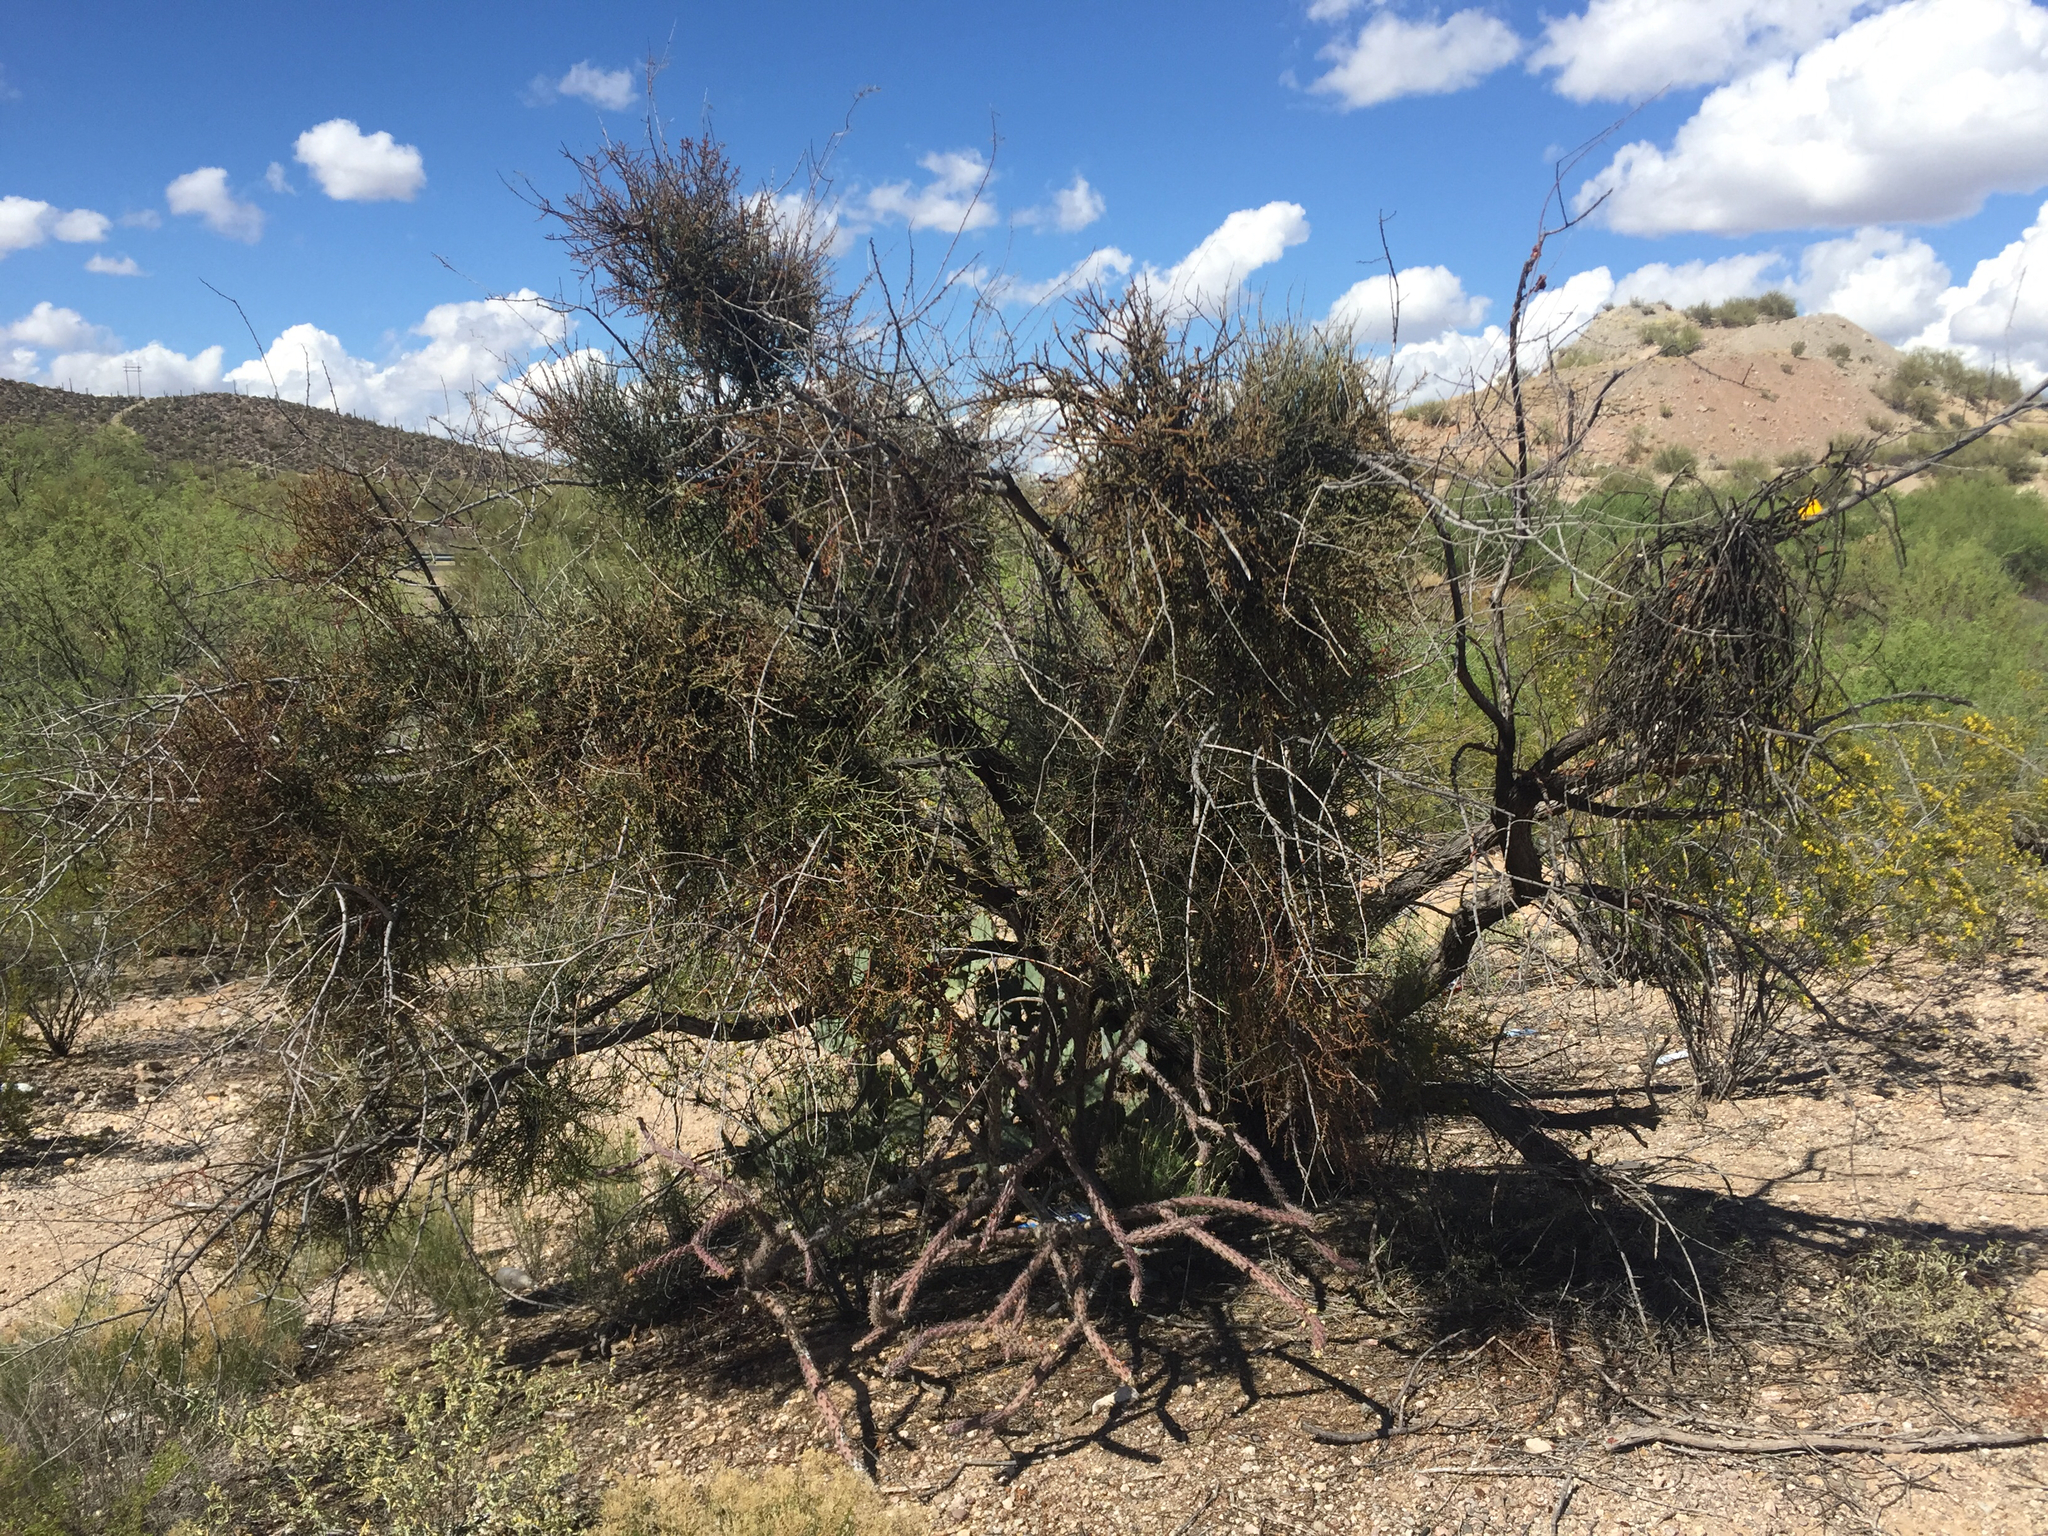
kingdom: Plantae
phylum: Tracheophyta
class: Magnoliopsida
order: Santalales
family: Viscaceae
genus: Phoradendron
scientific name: Phoradendron californicum
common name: Acacia mistletoe
